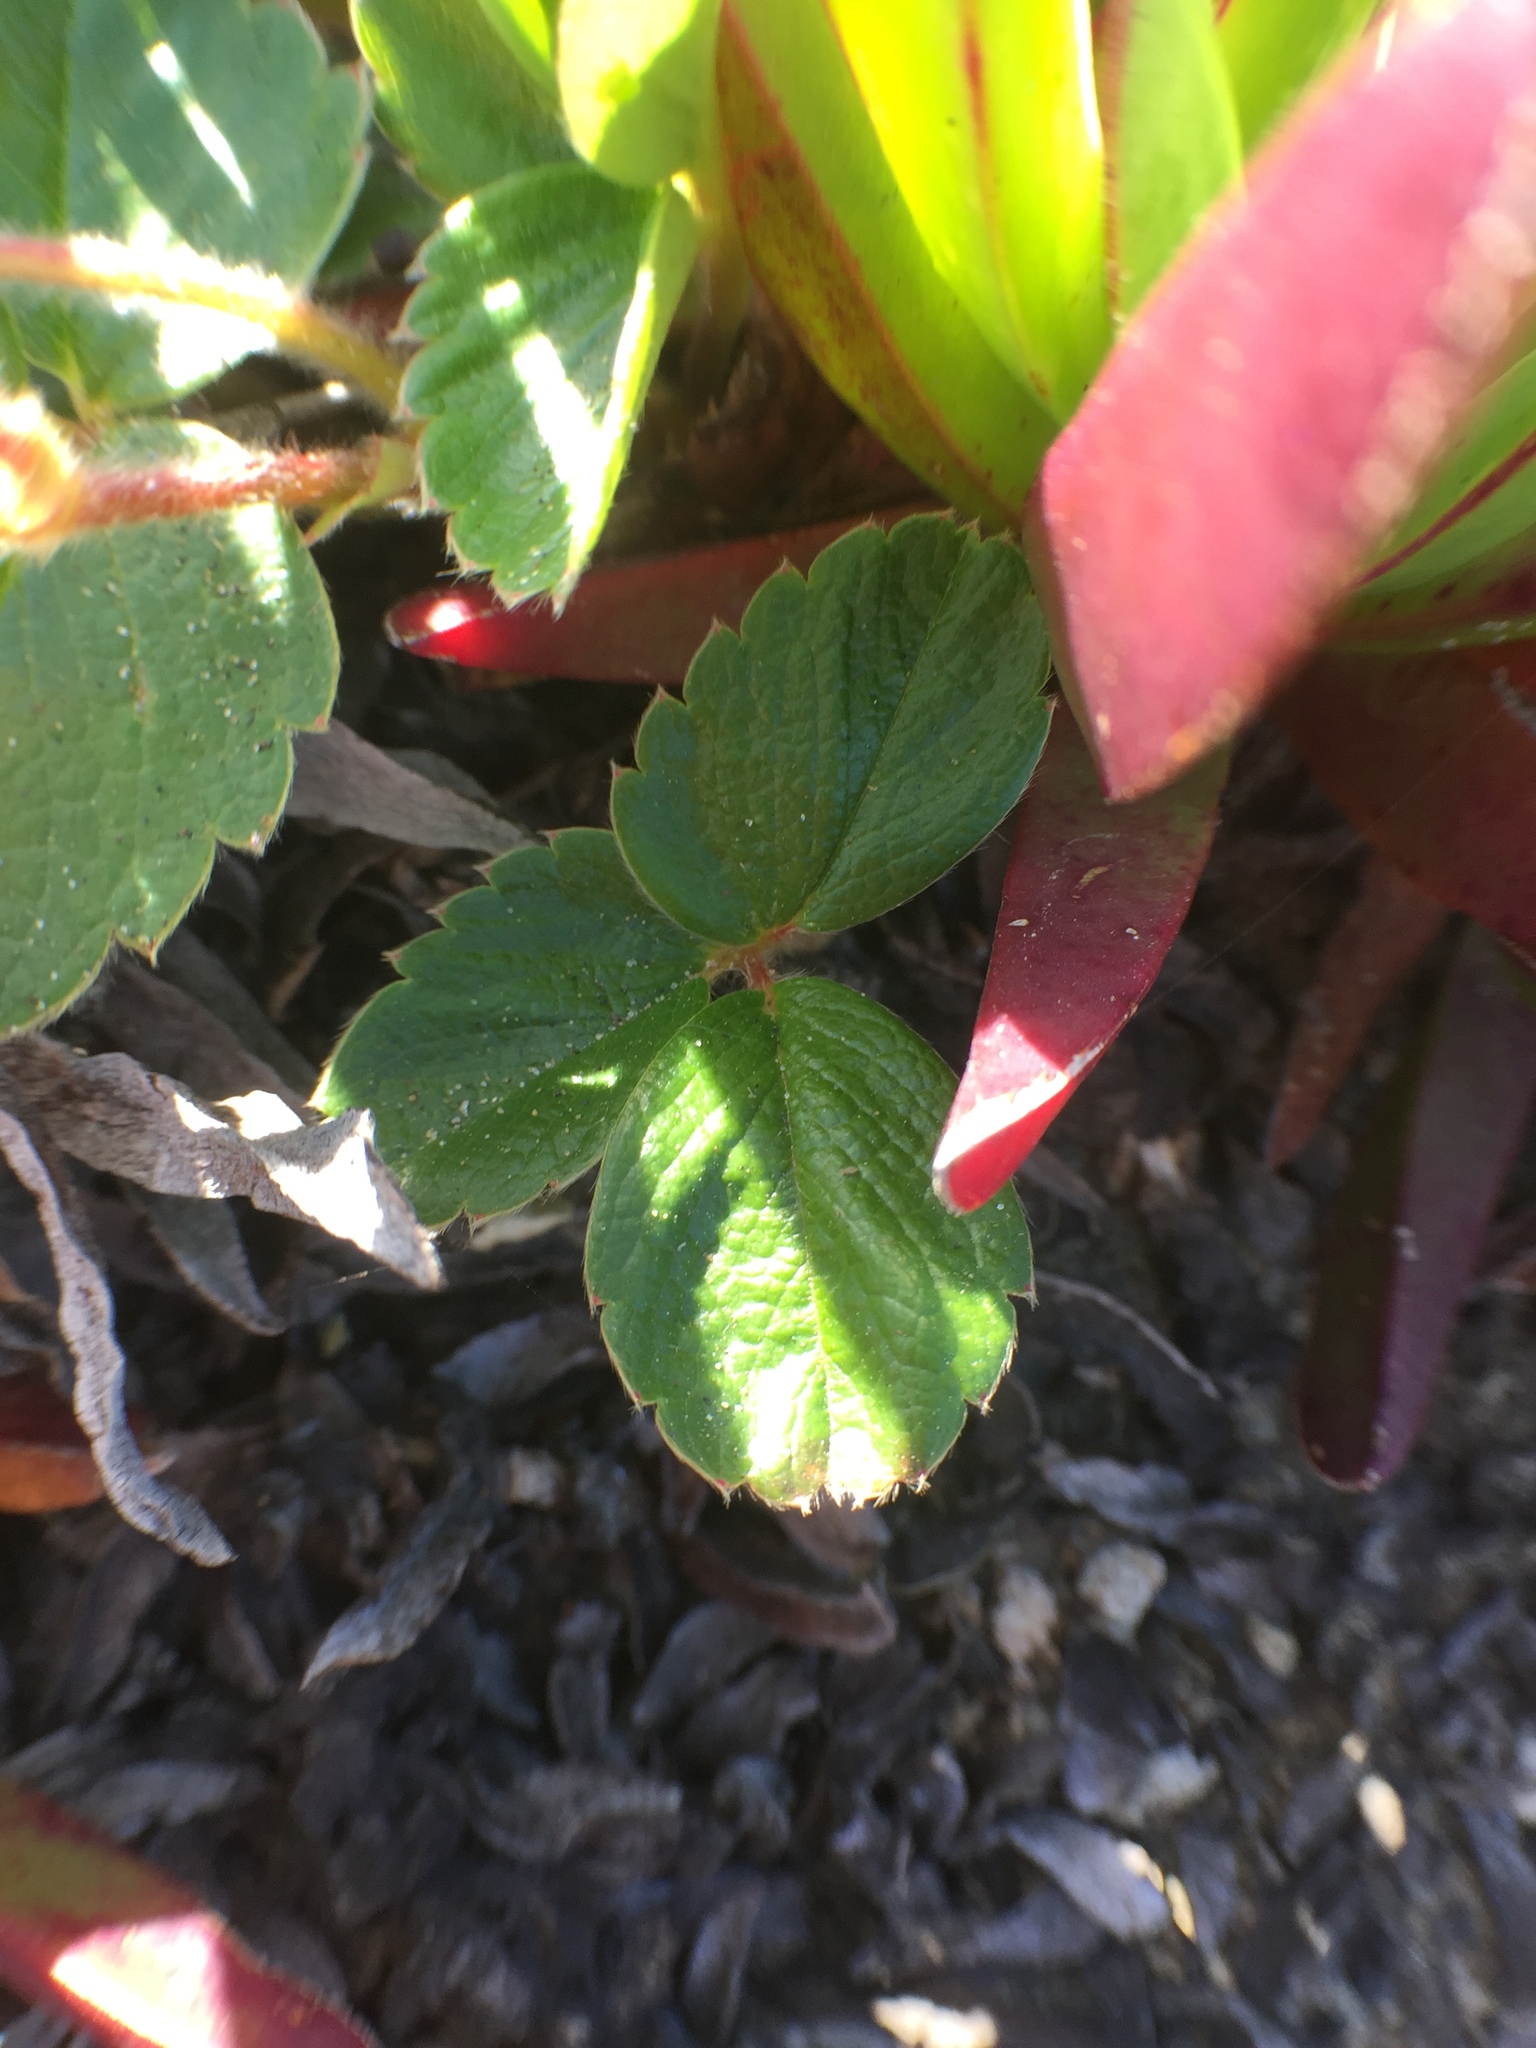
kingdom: Plantae
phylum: Tracheophyta
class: Magnoliopsida
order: Rosales
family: Rosaceae
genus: Fragaria
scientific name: Fragaria chiloensis
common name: Beach strawberry
